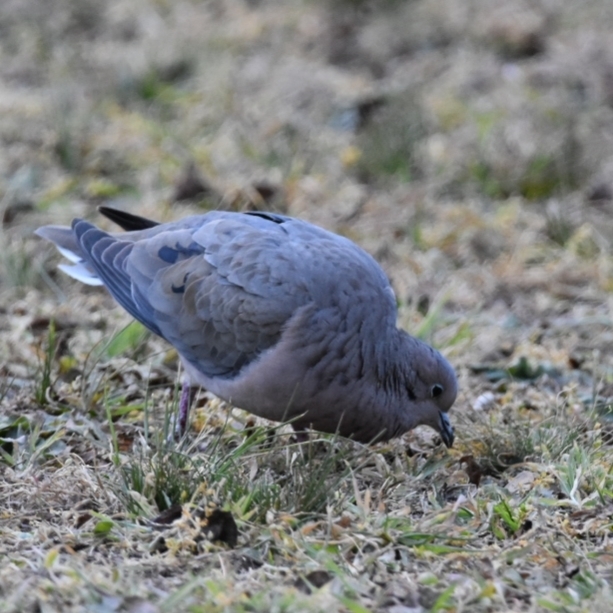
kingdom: Animalia
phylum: Chordata
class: Aves
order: Columbiformes
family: Columbidae
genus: Zenaida
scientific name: Zenaida auriculata
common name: Eared dove
